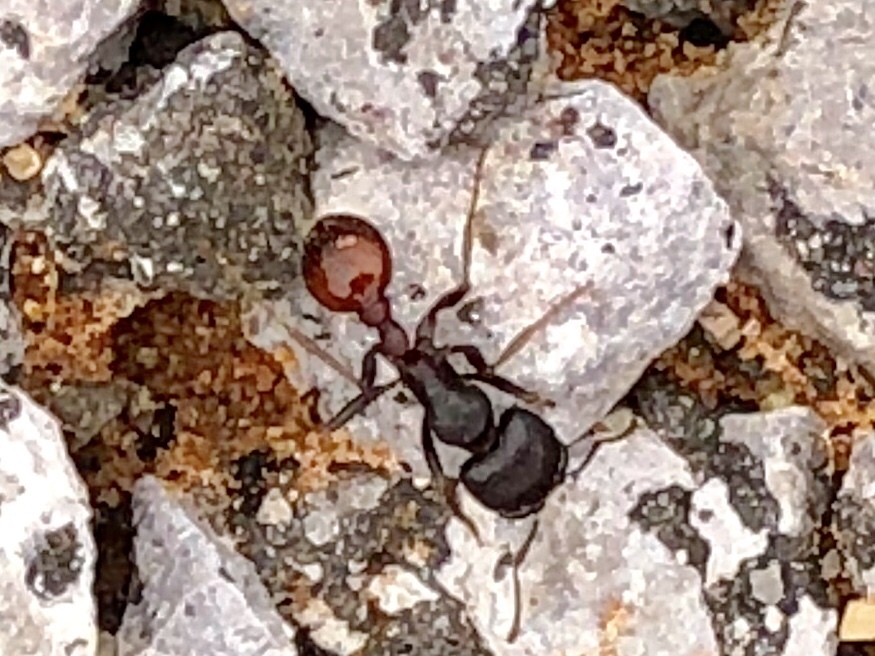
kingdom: Animalia
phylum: Arthropoda
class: Insecta
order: Hymenoptera
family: Formicidae
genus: Pogonomyrmex
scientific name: Pogonomyrmex rugosus
